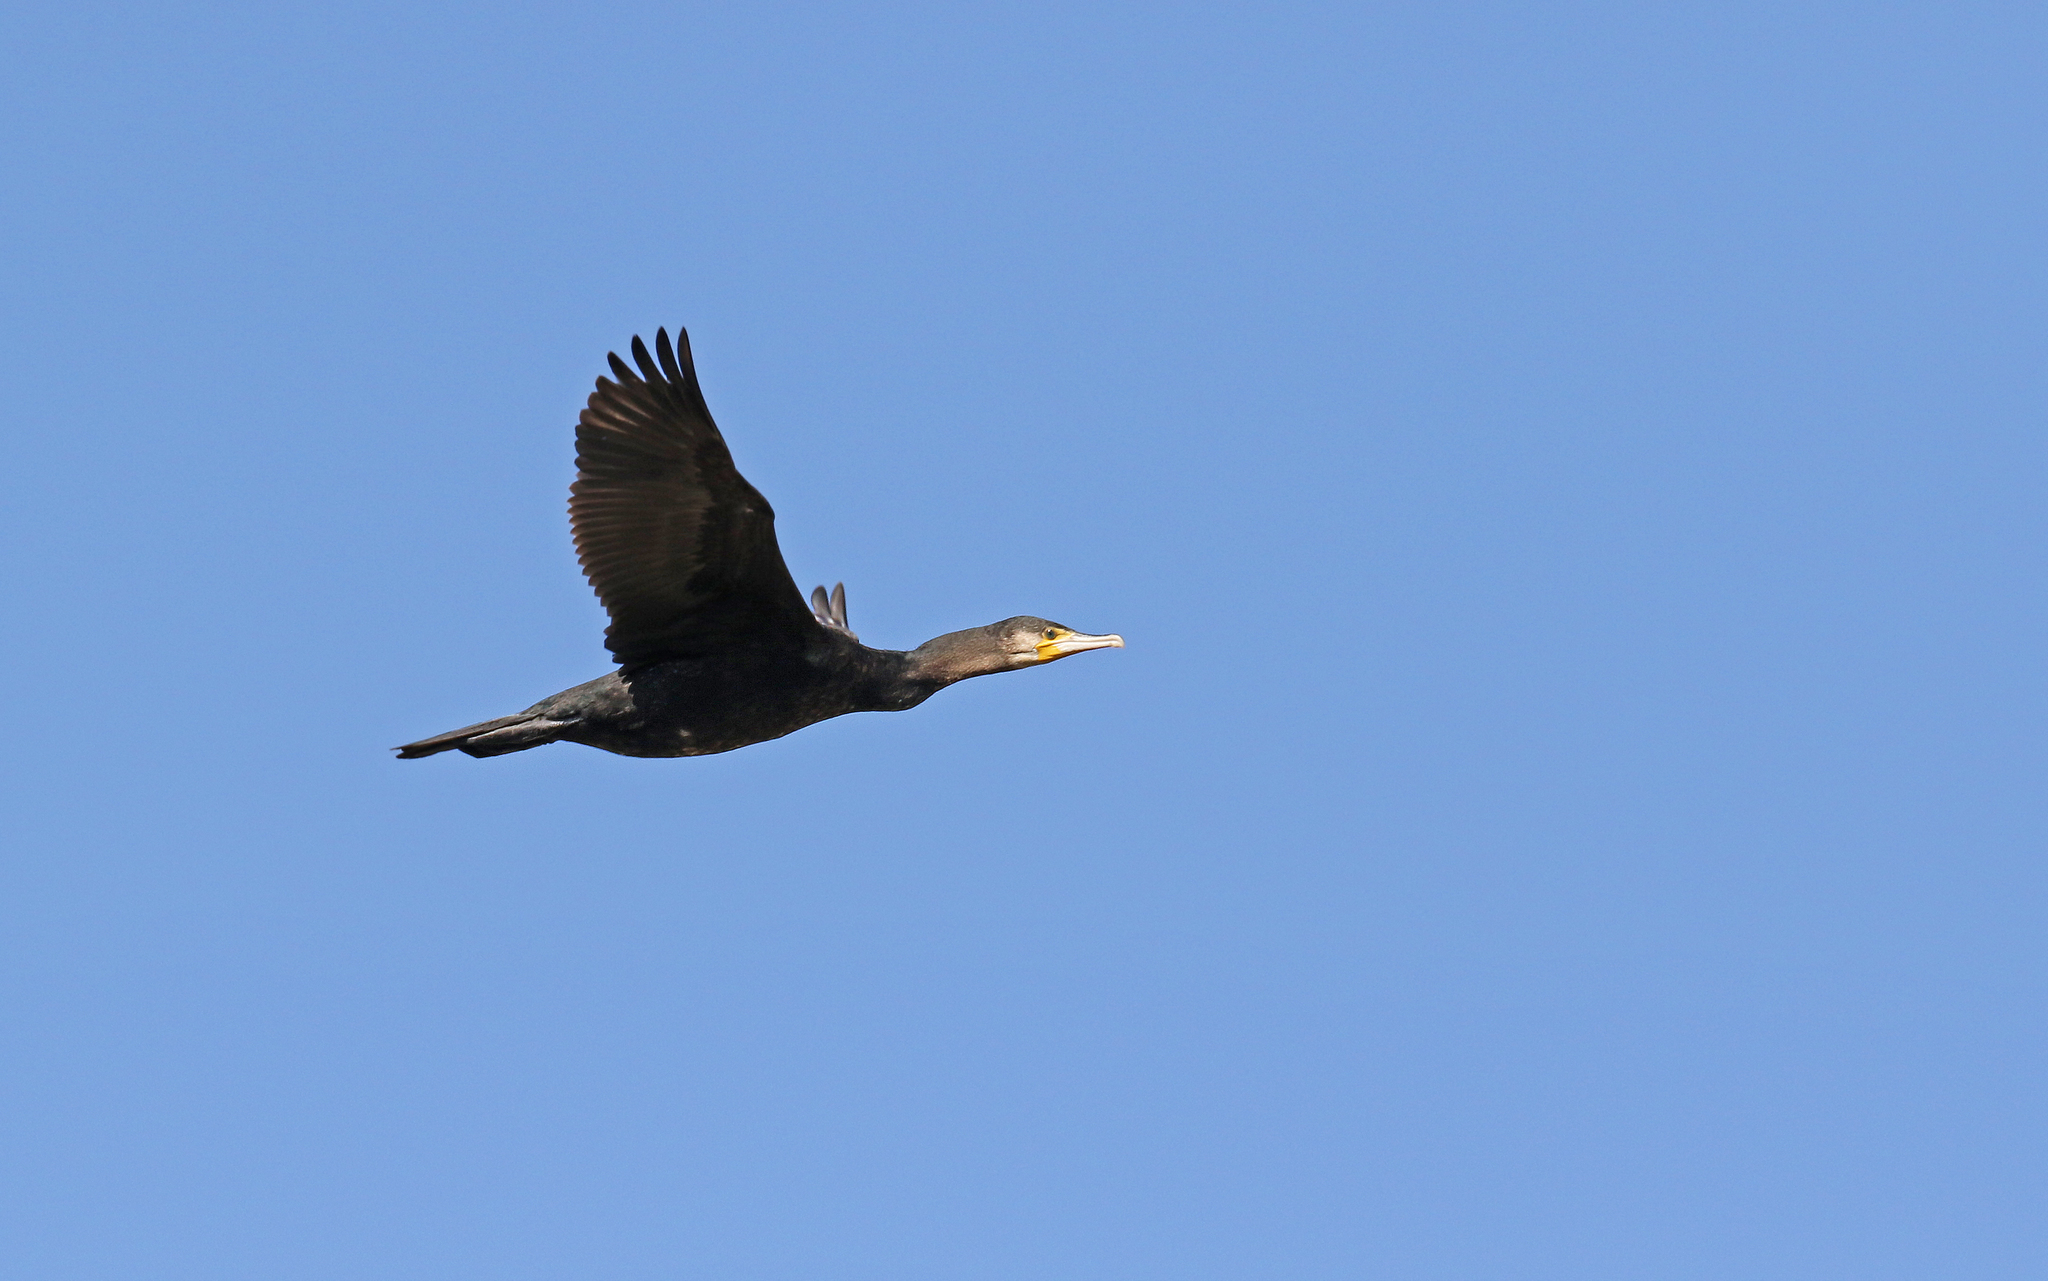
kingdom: Animalia
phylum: Chordata
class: Aves
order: Suliformes
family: Phalacrocoracidae
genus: Phalacrocorax
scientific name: Phalacrocorax carbo
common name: Great cormorant
